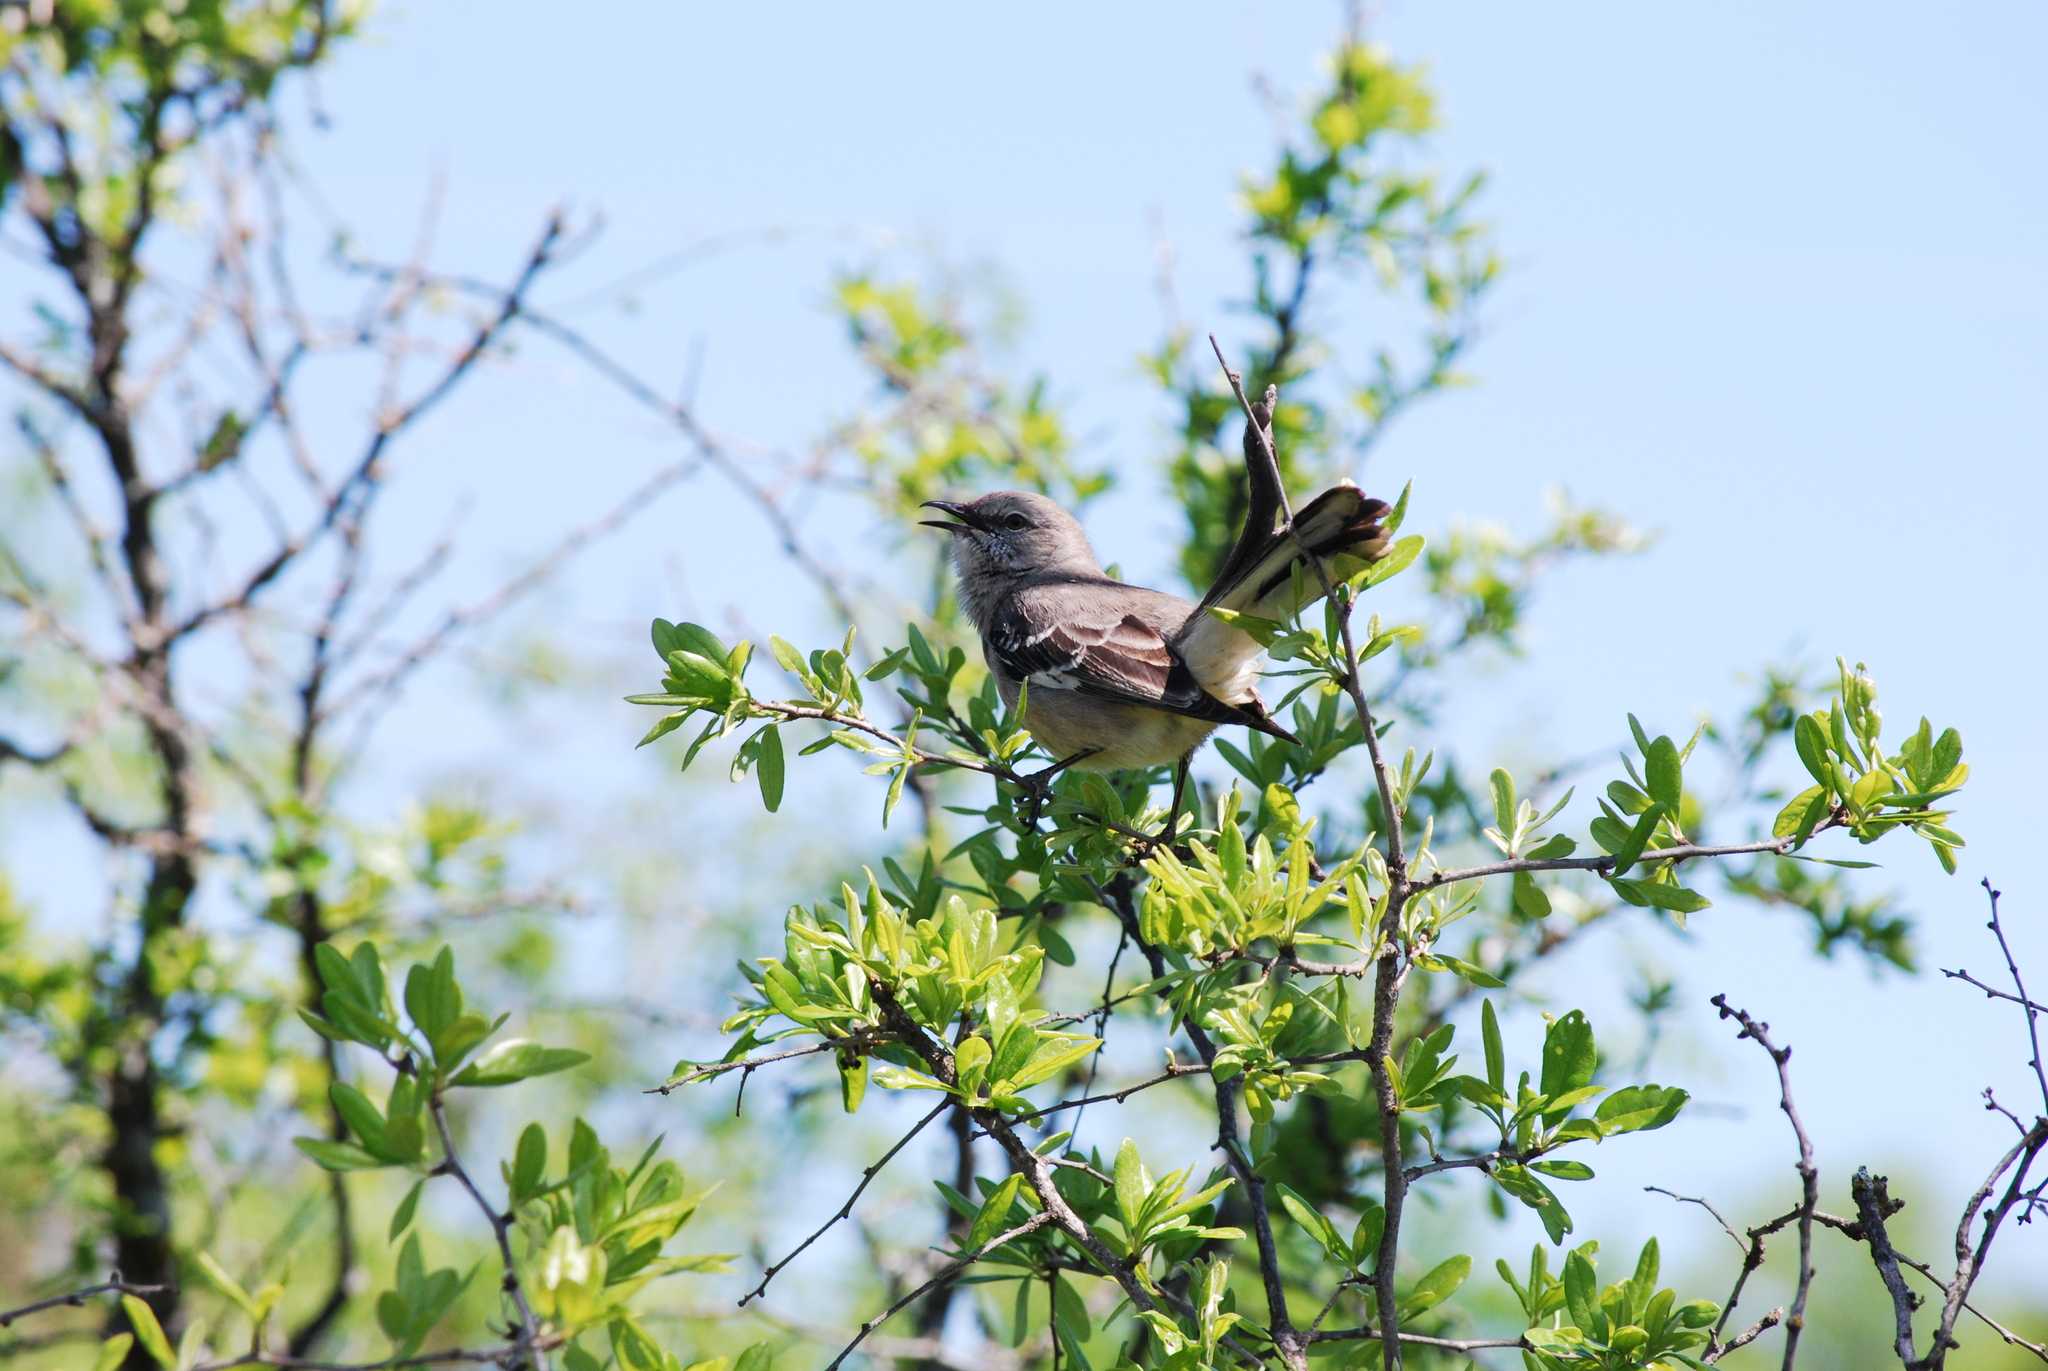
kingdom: Animalia
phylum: Chordata
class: Aves
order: Passeriformes
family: Mimidae
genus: Mimus
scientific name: Mimus polyglottos
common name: Northern mockingbird
